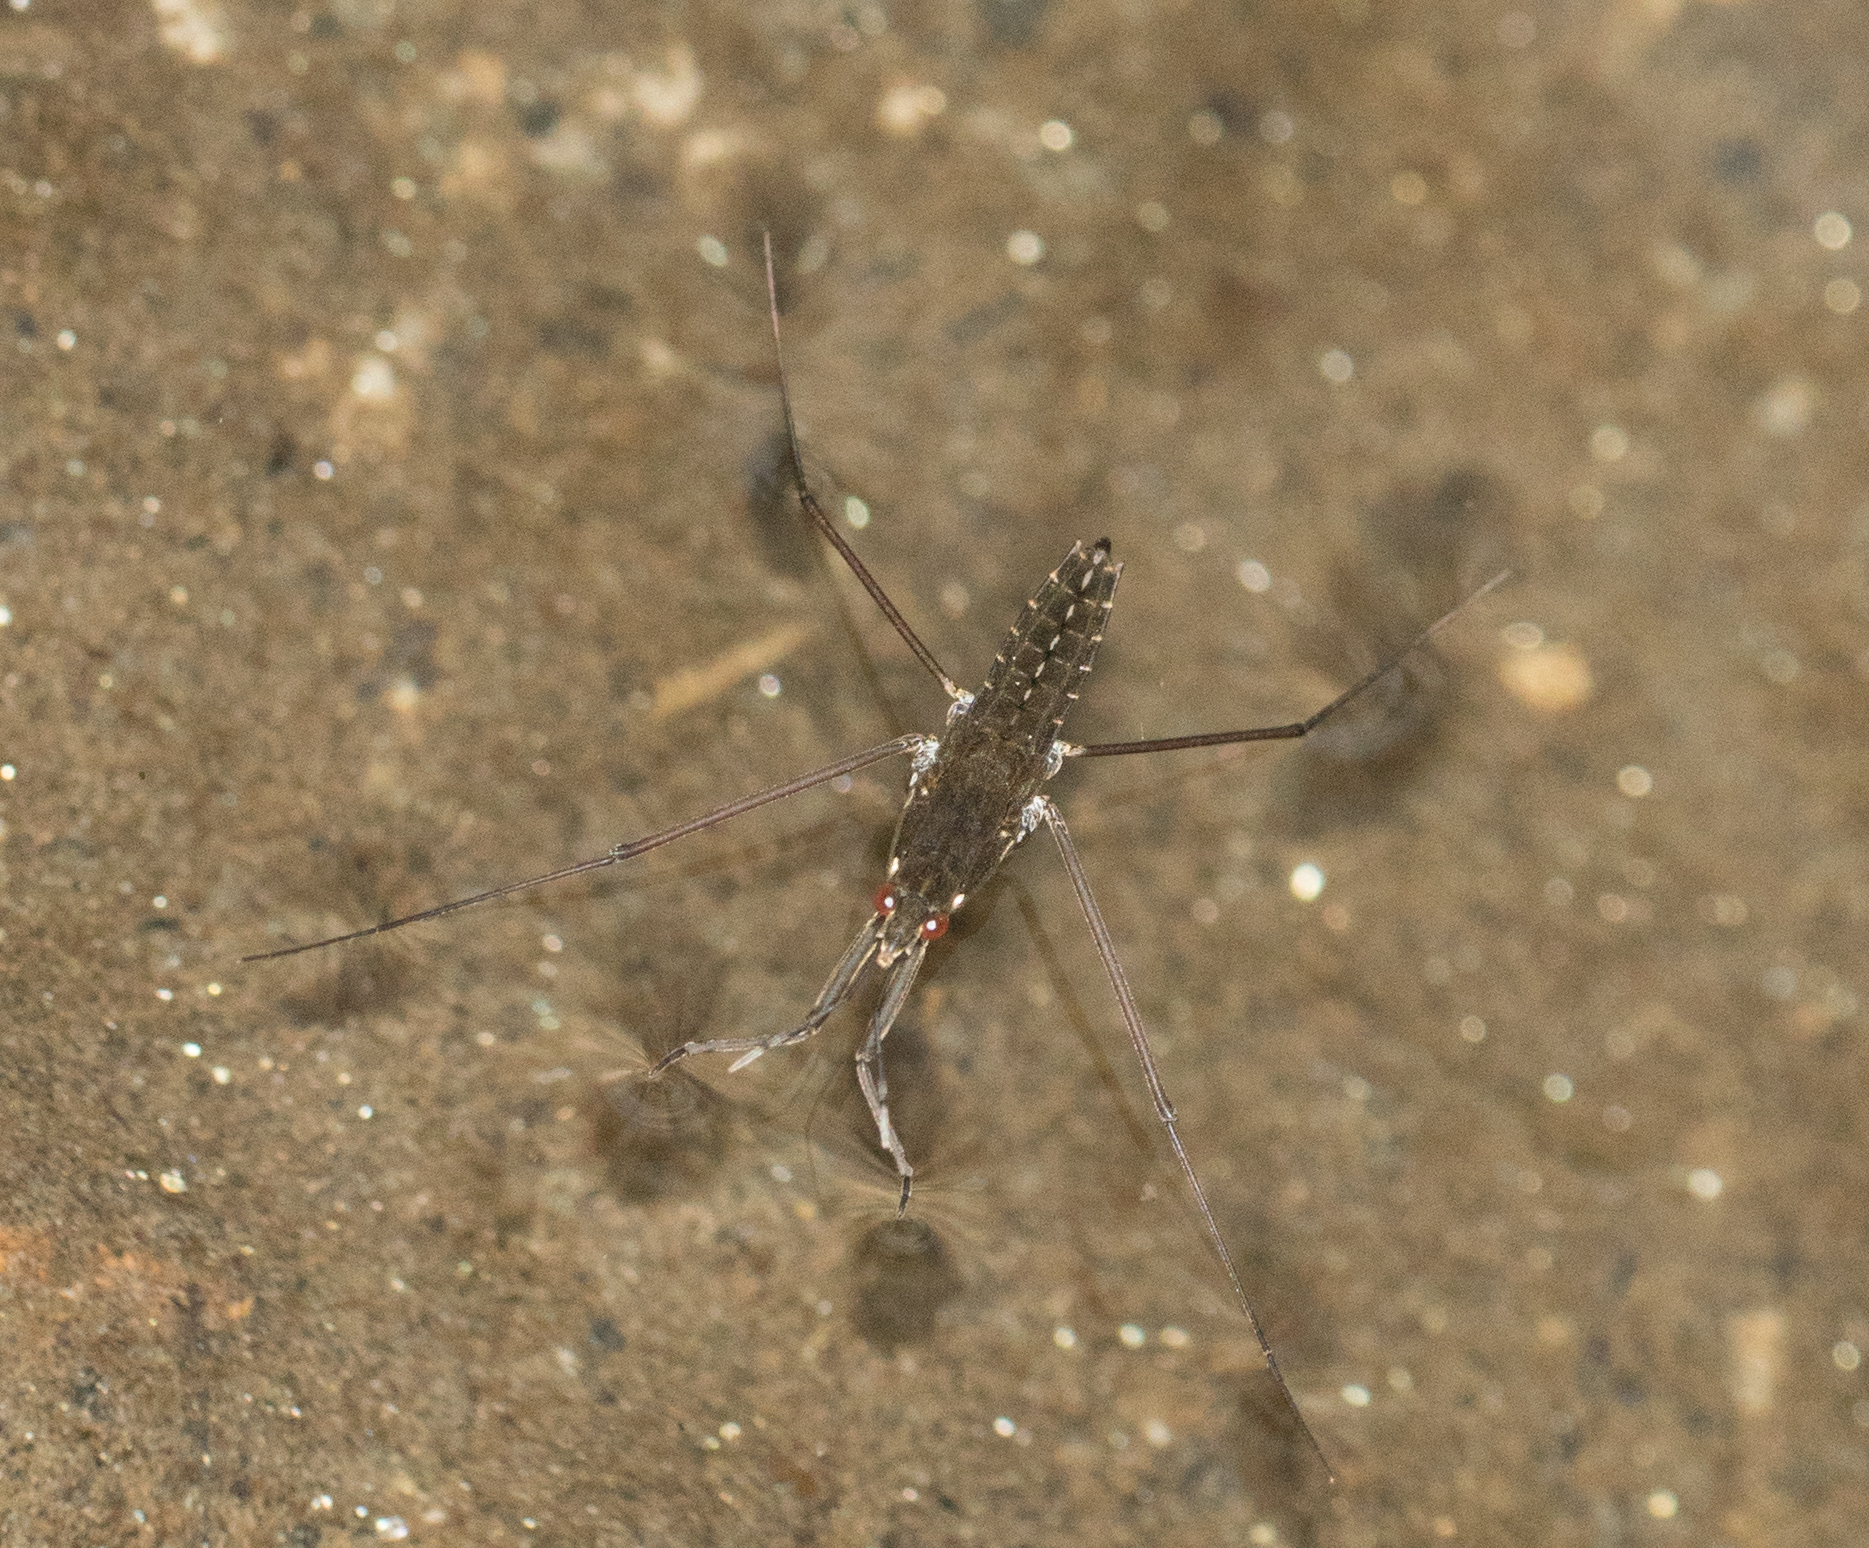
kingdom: Animalia
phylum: Arthropoda
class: Insecta
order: Hemiptera
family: Gerridae
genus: Aquarius
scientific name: Aquarius remigis
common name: Common water strider
